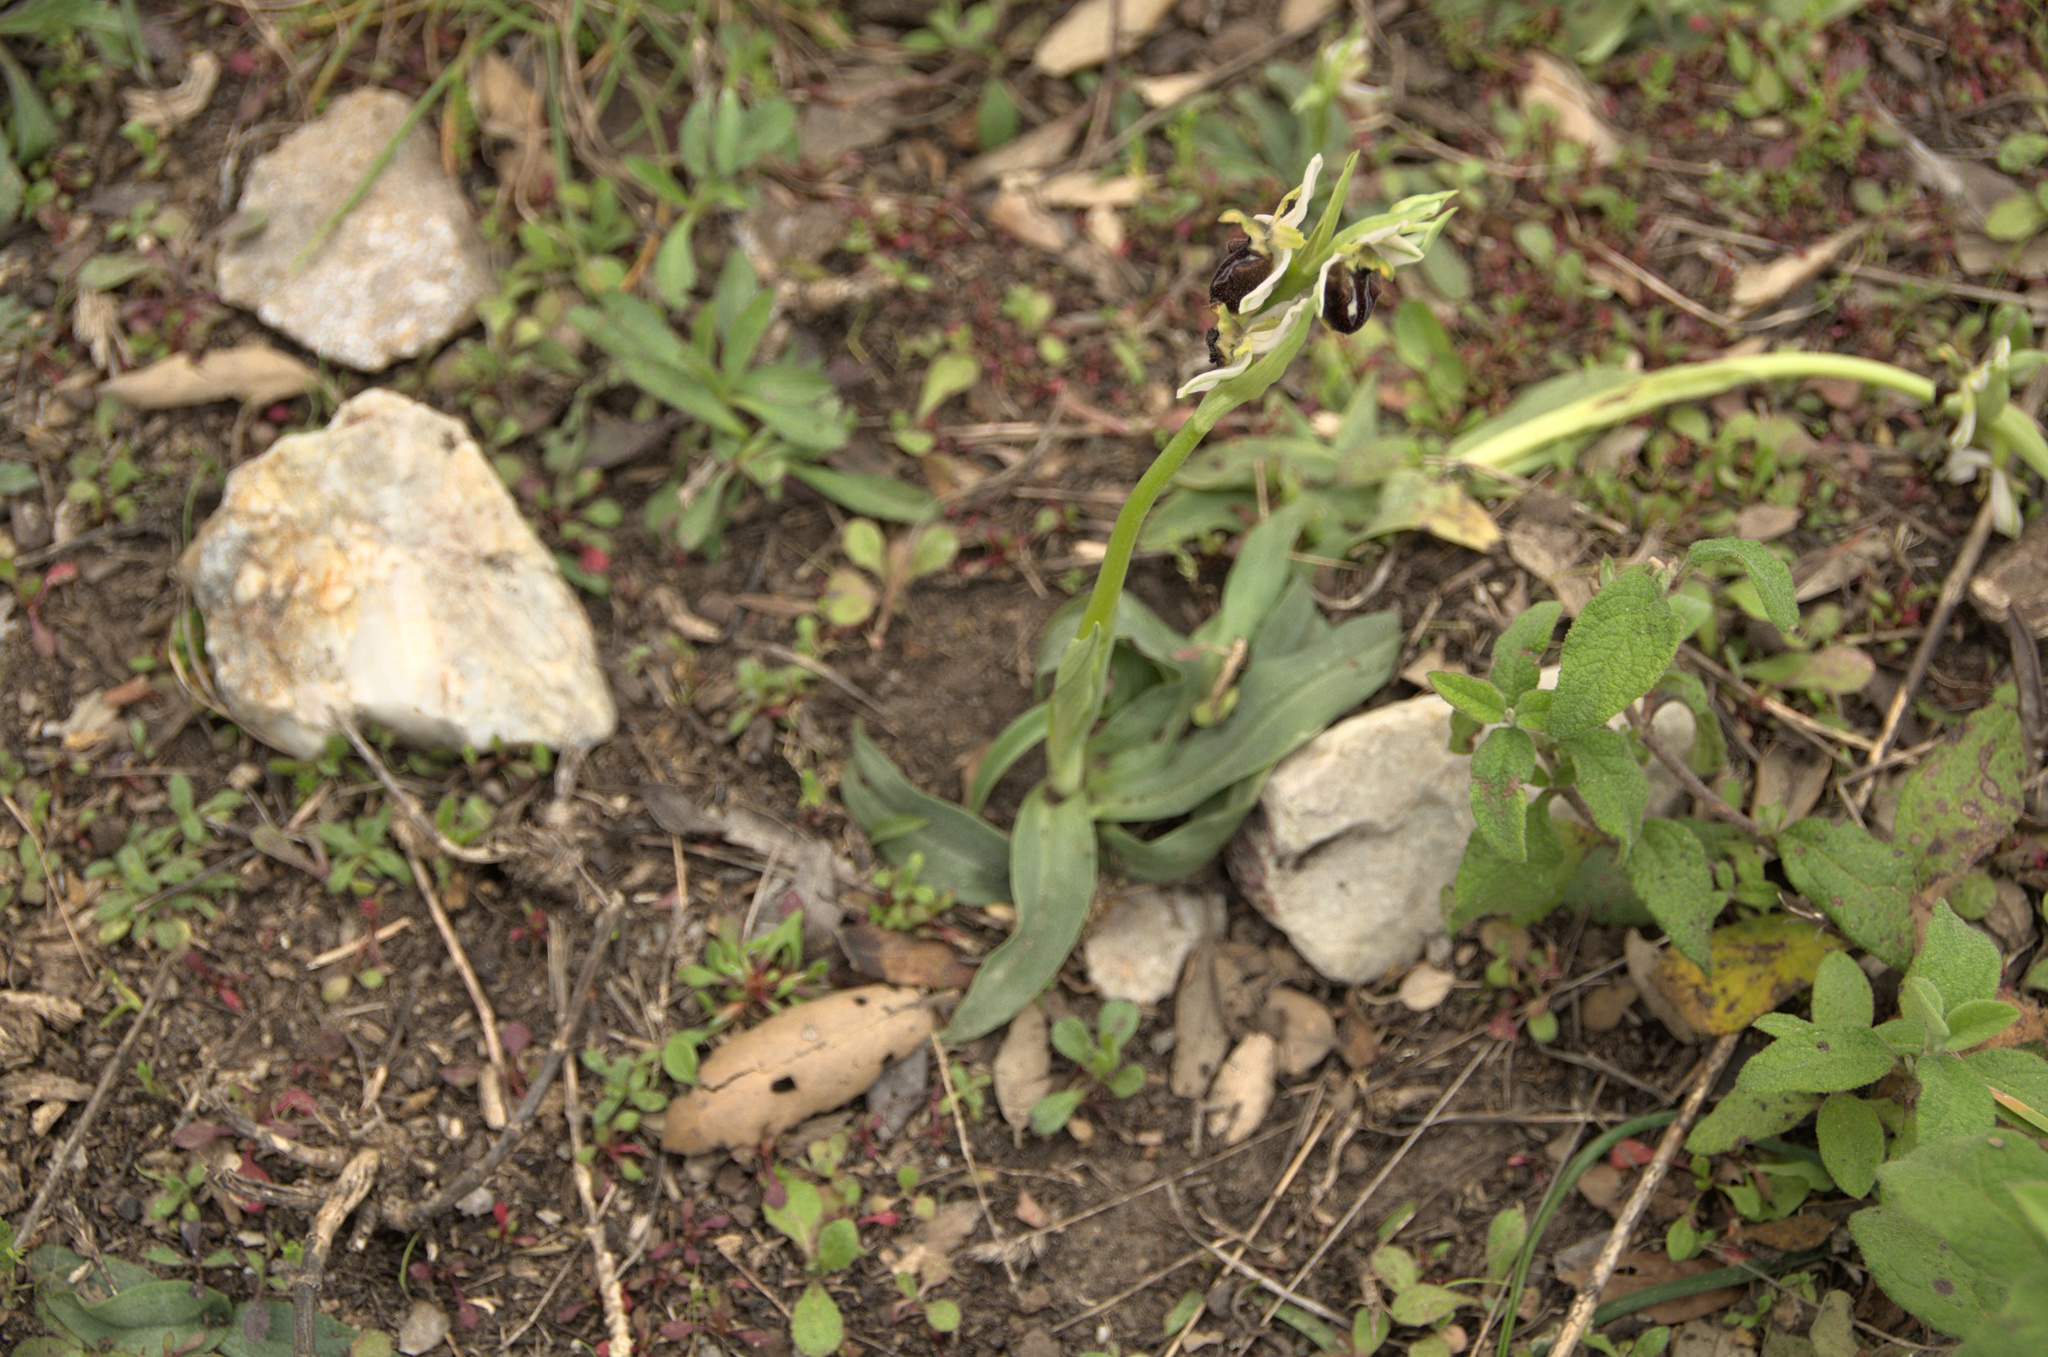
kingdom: Plantae
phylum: Tracheophyta
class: Liliopsida
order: Asparagales
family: Orchidaceae
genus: Ophrys
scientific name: Ophrys arachnitiformis
